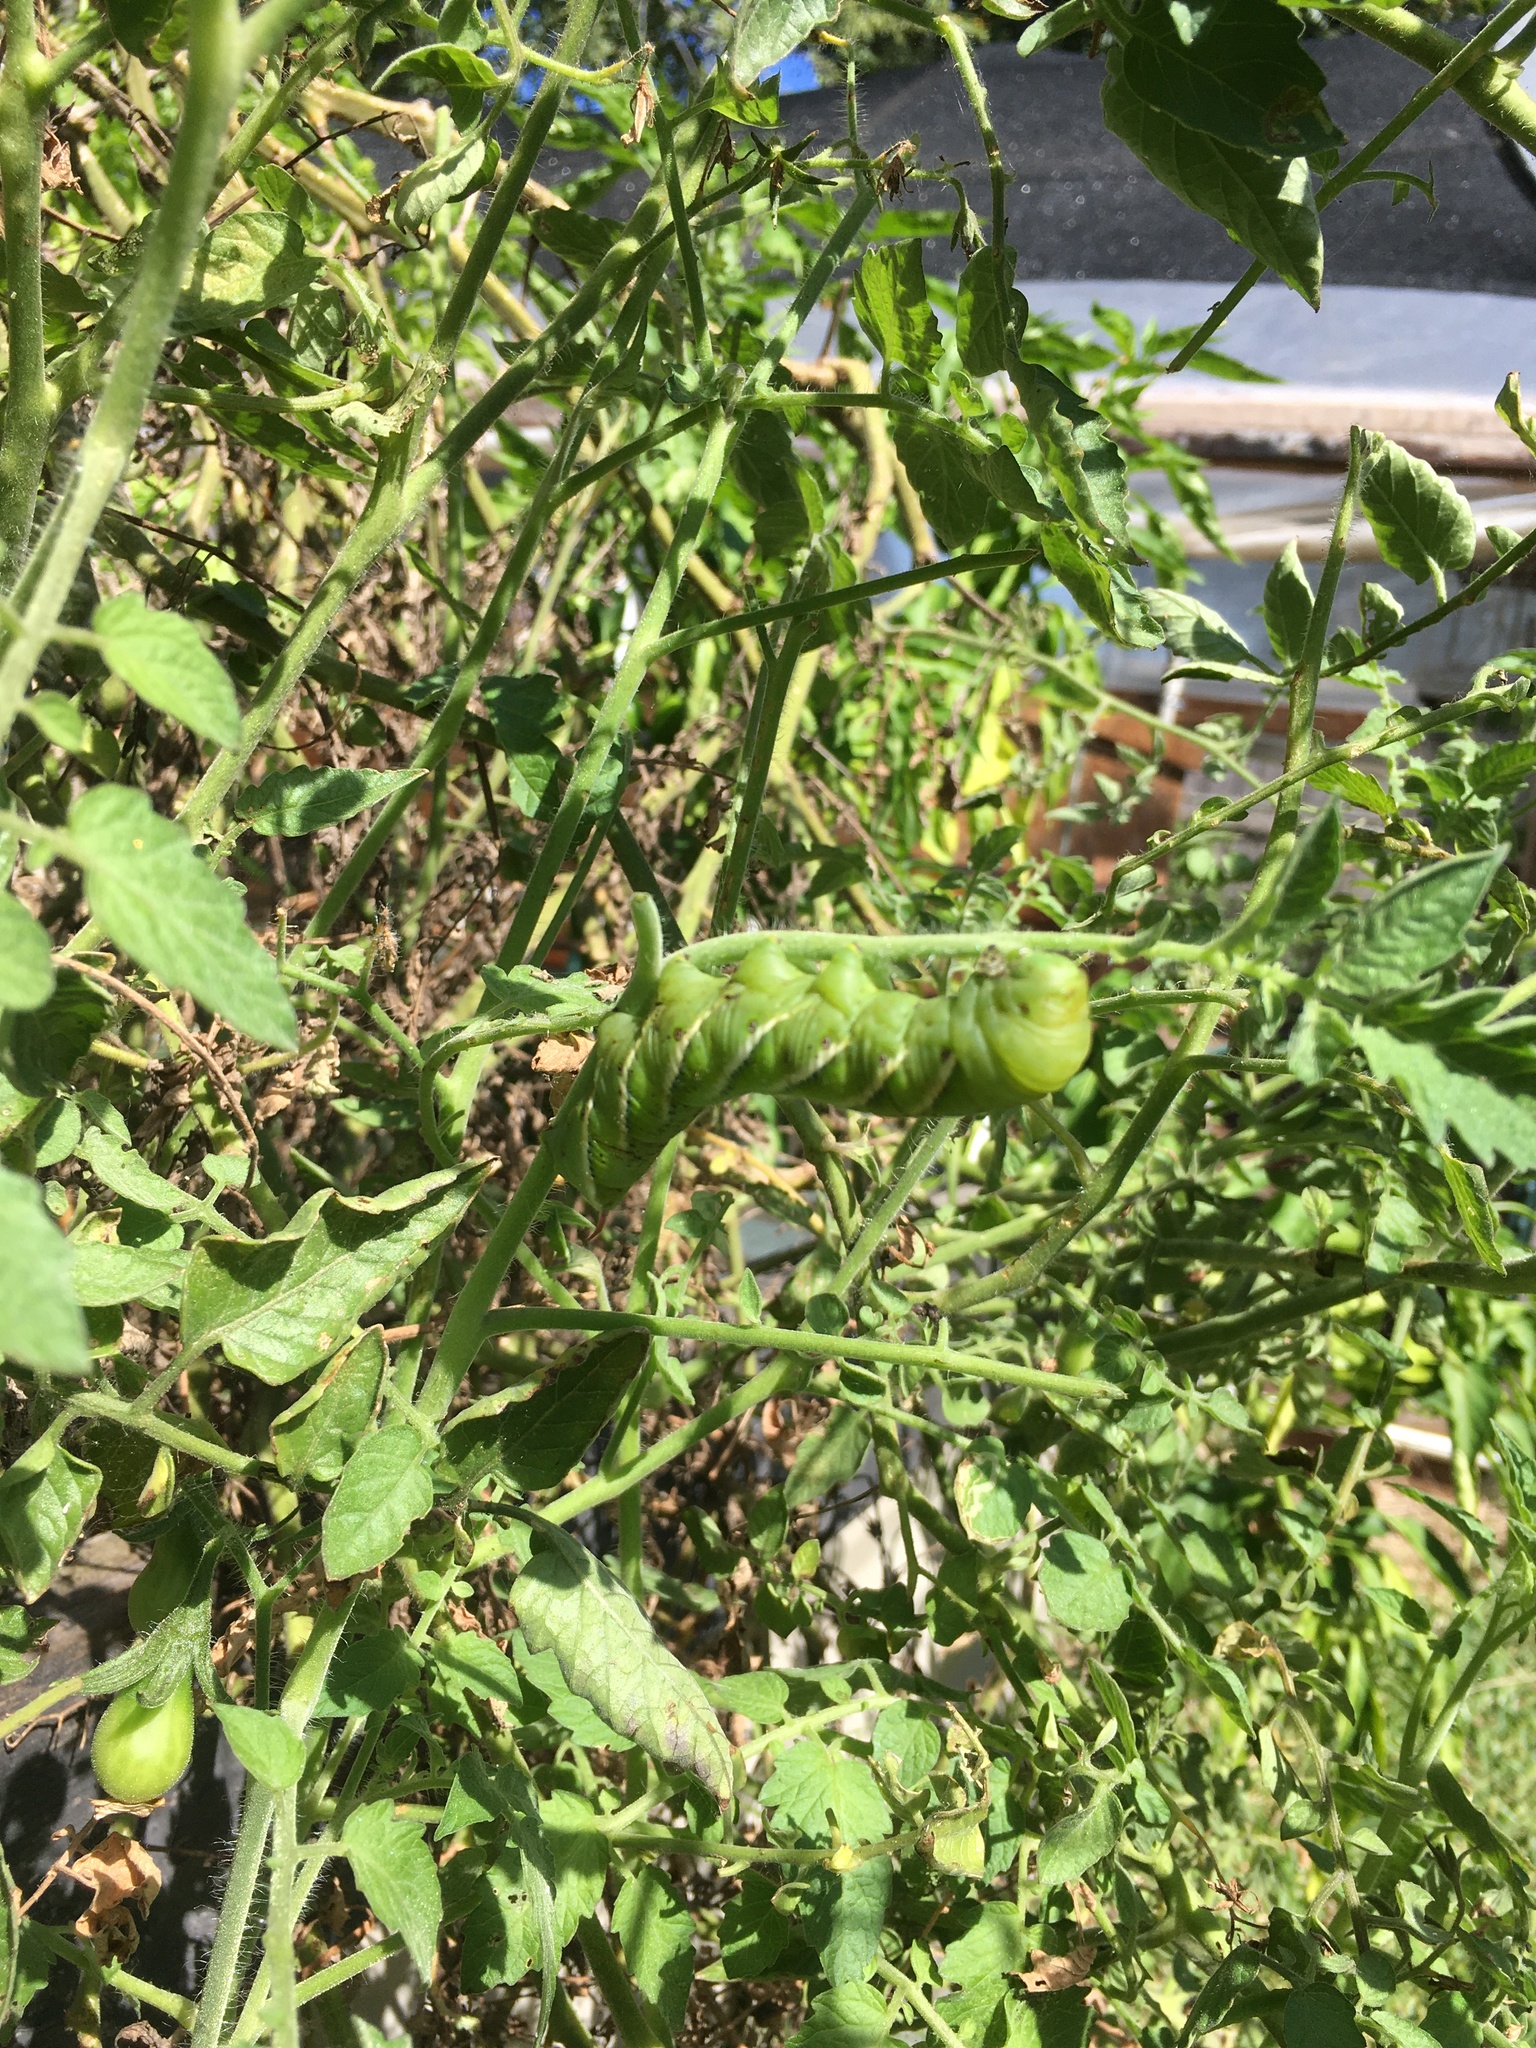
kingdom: Animalia
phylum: Arthropoda
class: Insecta
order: Lepidoptera
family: Sphingidae
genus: Manduca
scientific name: Manduca sexta
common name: Carolina sphinx
